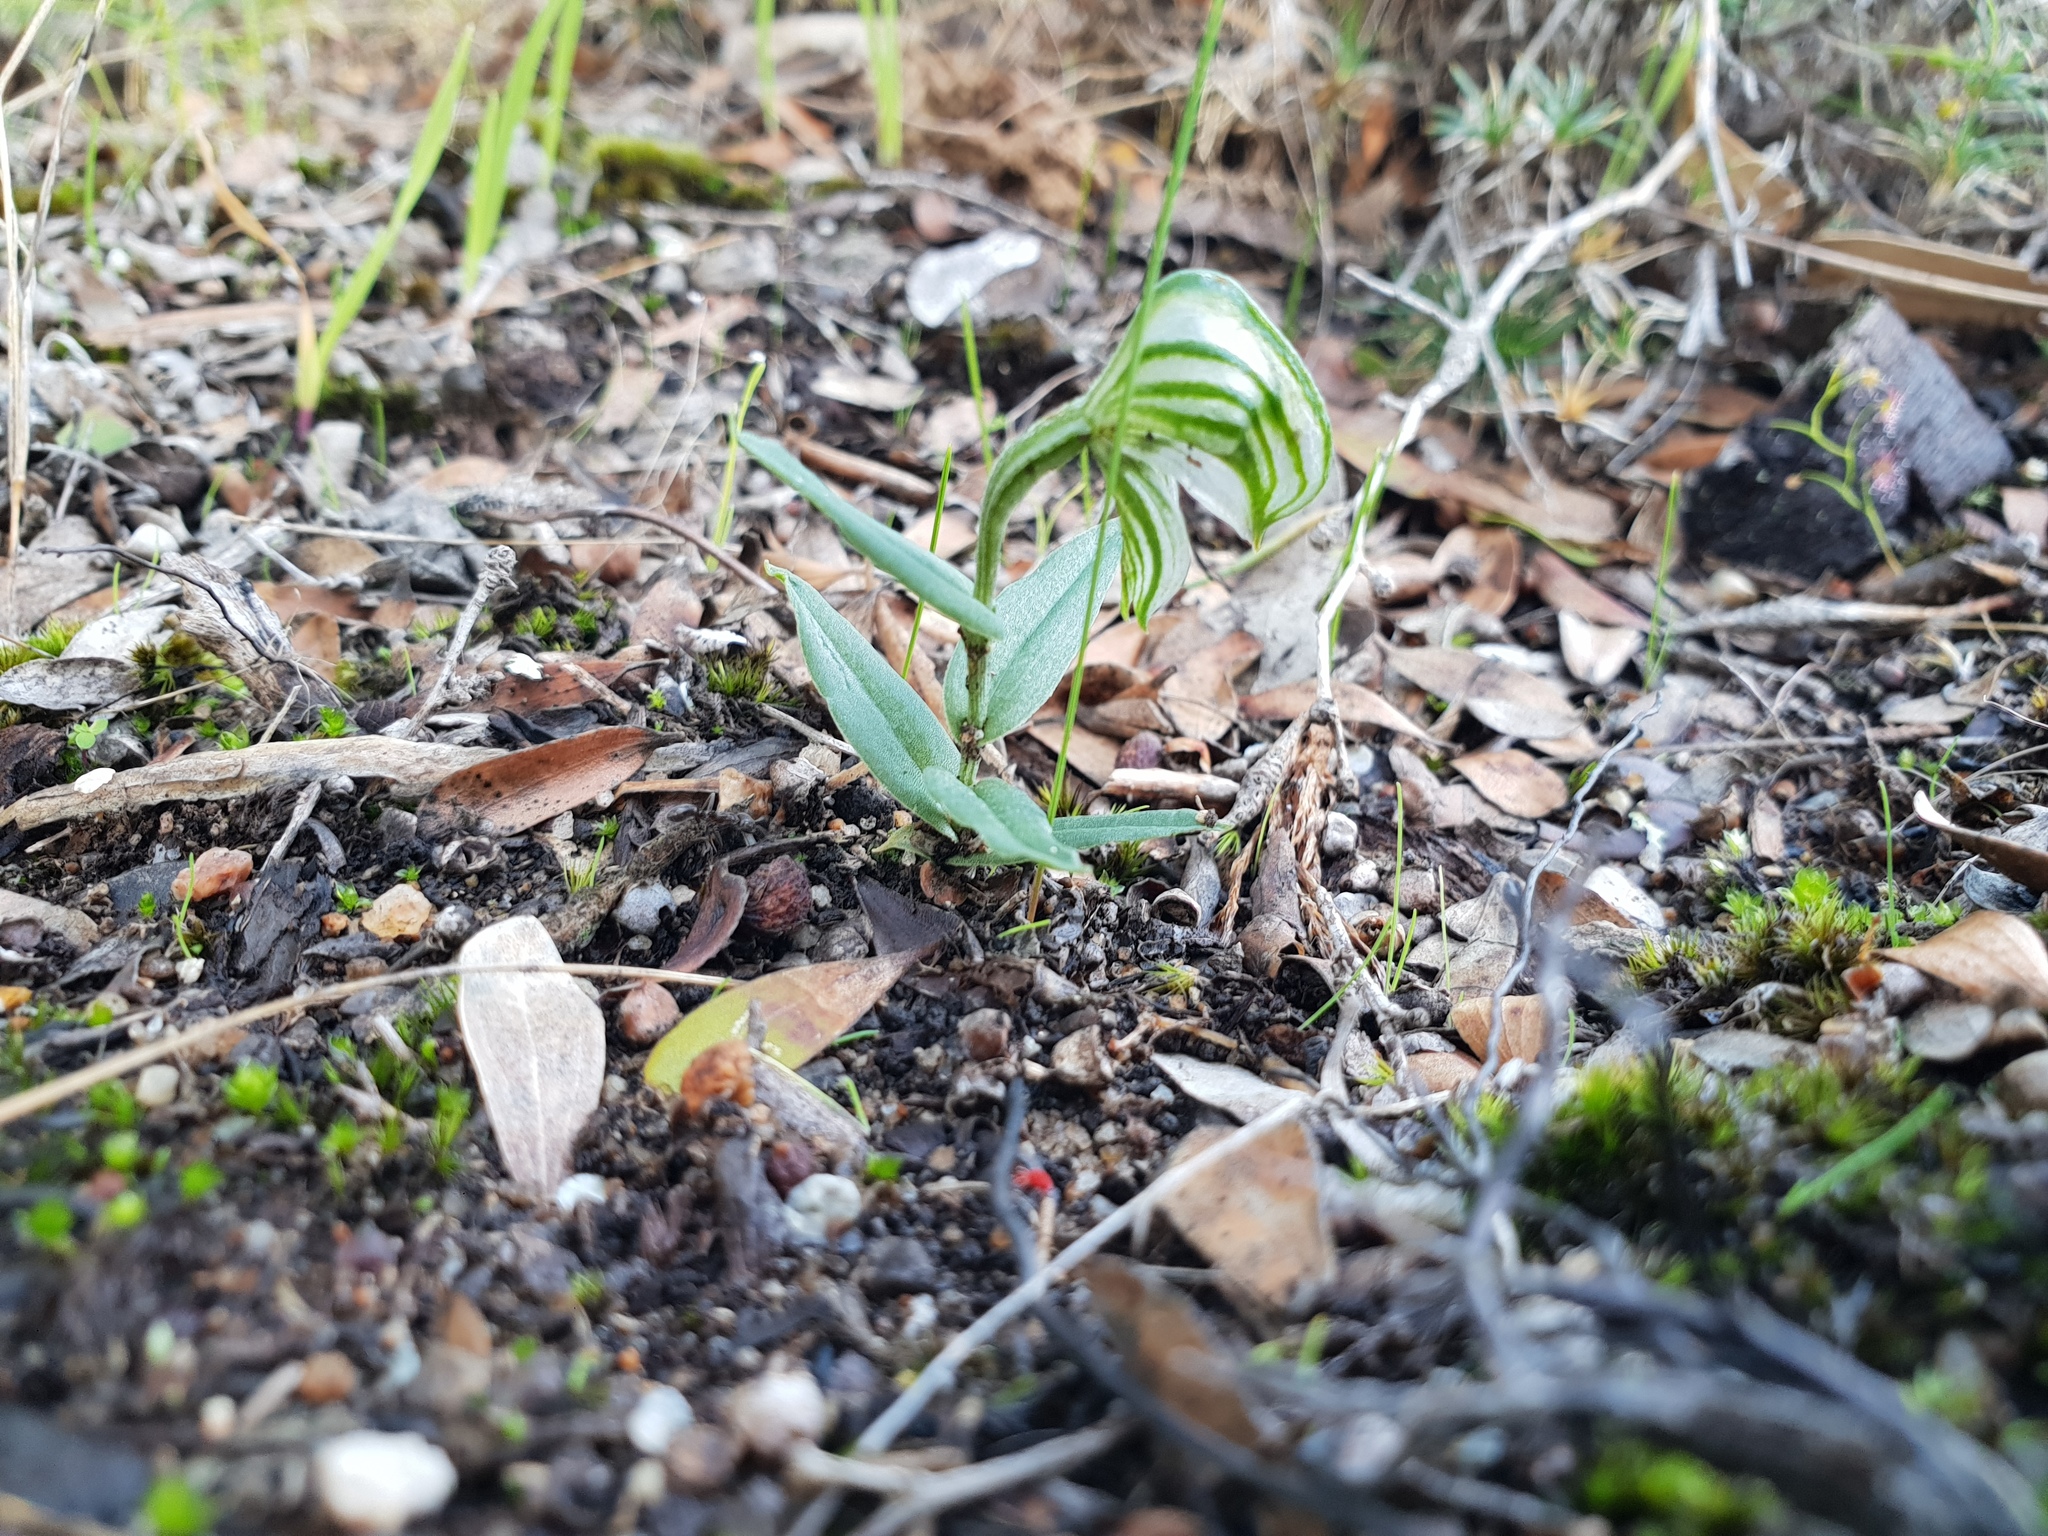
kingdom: Plantae
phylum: Tracheophyta
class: Liliopsida
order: Asparagales
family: Orchidaceae
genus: Pterostylis
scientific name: Pterostylis vittata
